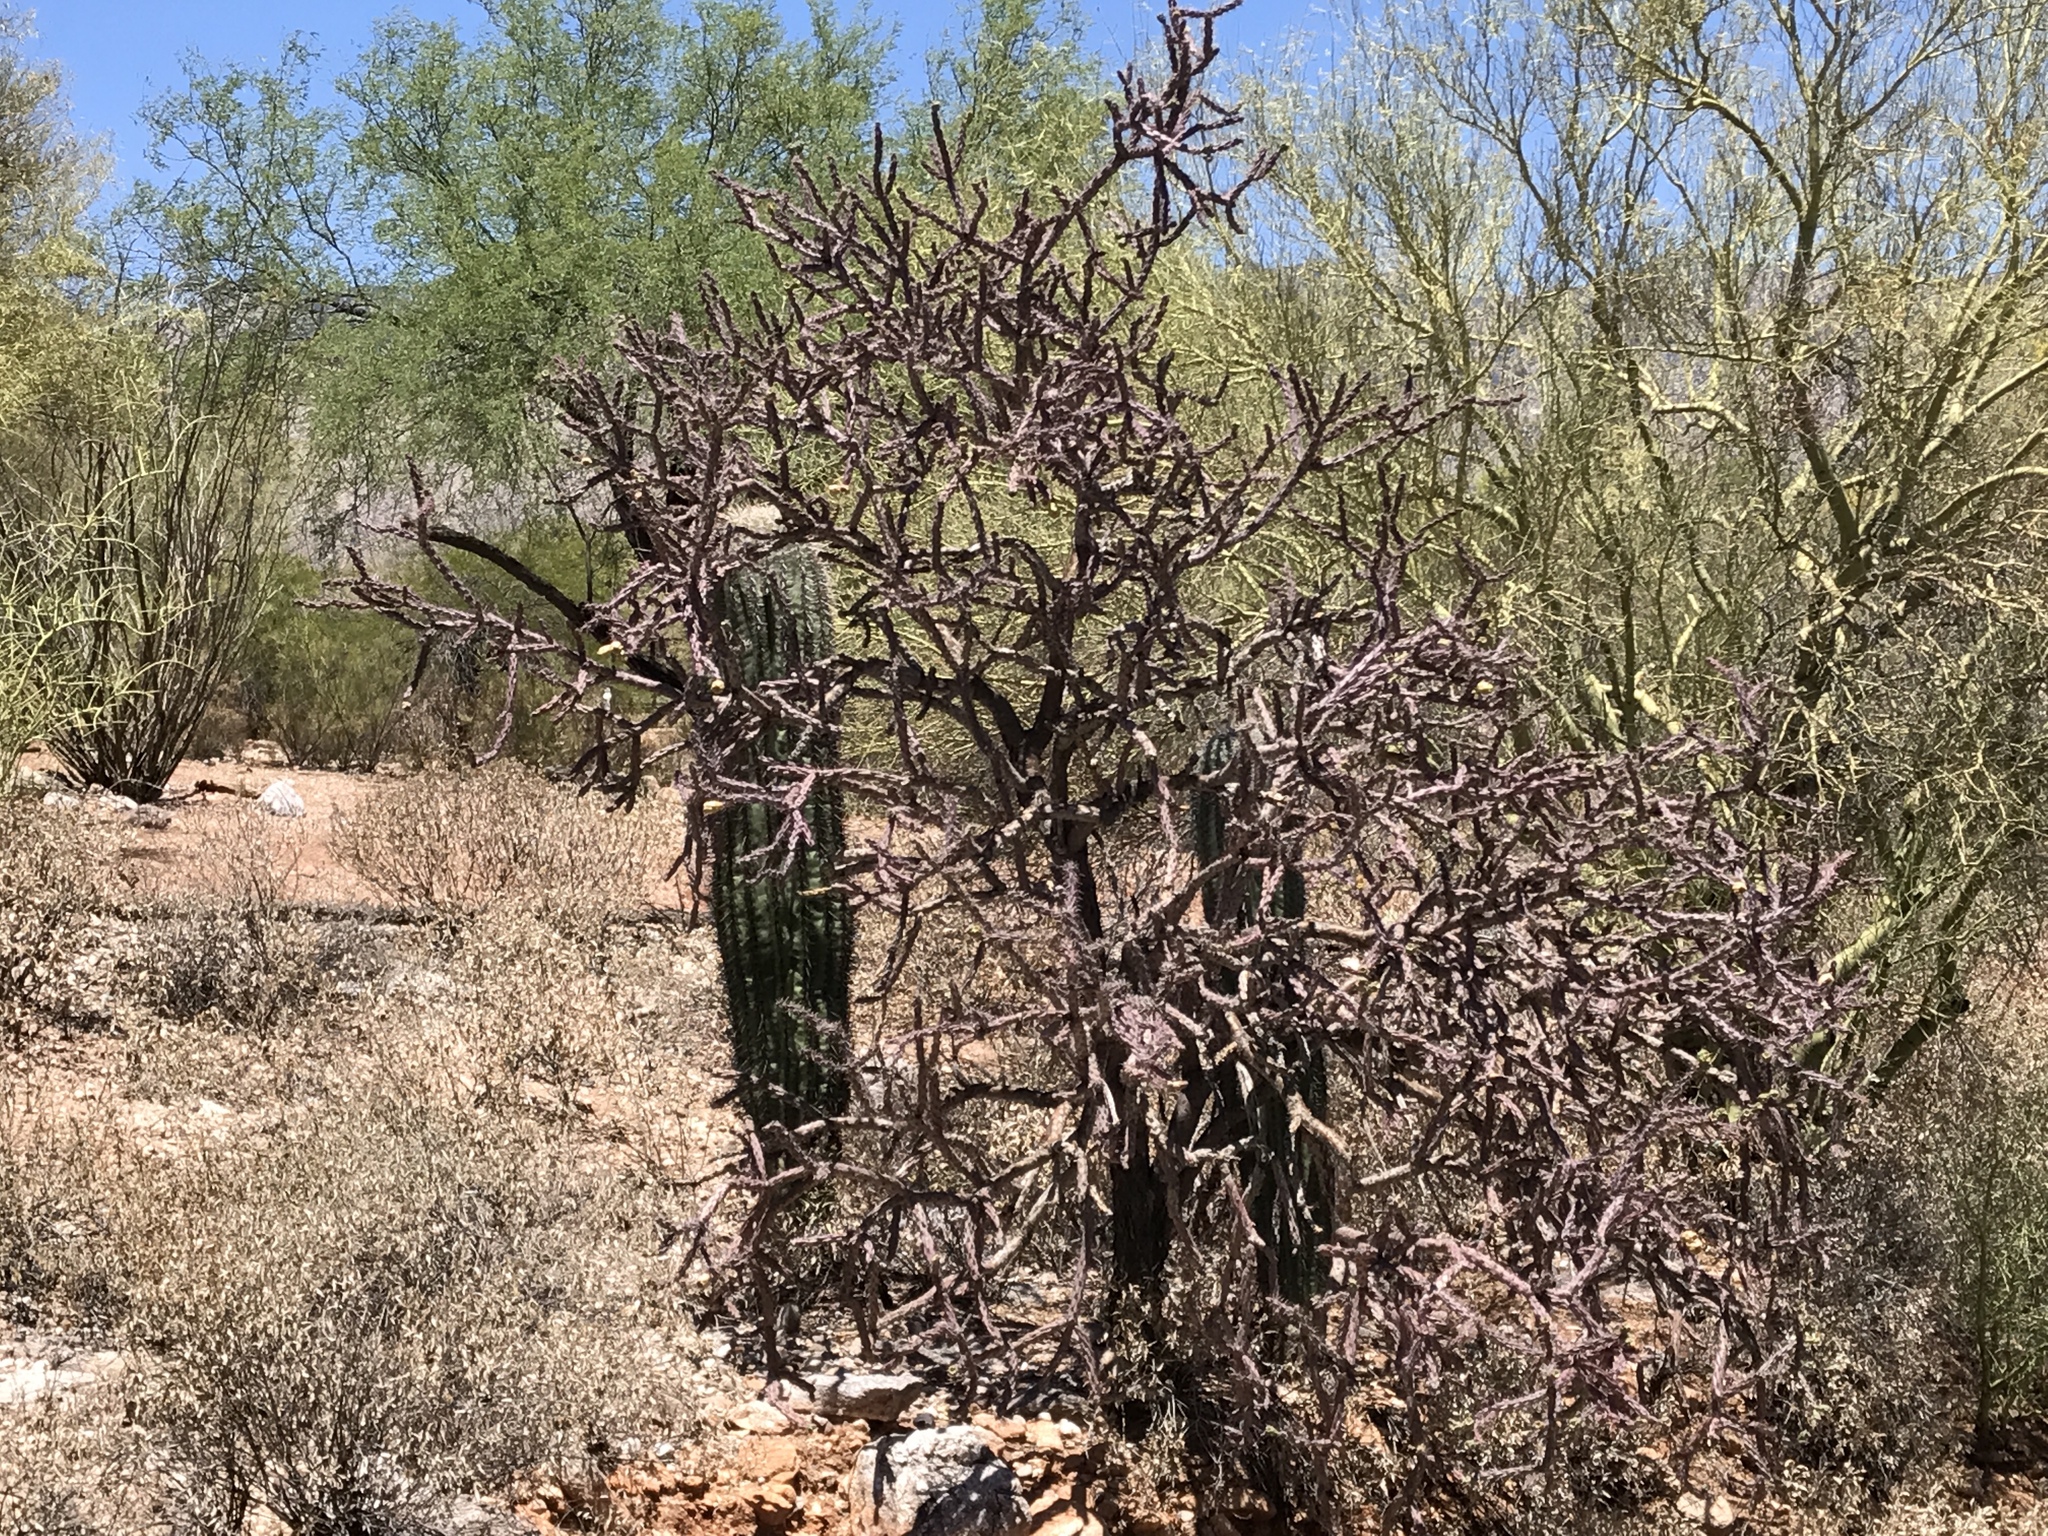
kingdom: Plantae
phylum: Tracheophyta
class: Magnoliopsida
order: Caryophyllales
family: Cactaceae
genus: Cylindropuntia
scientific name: Cylindropuntia thurberi
